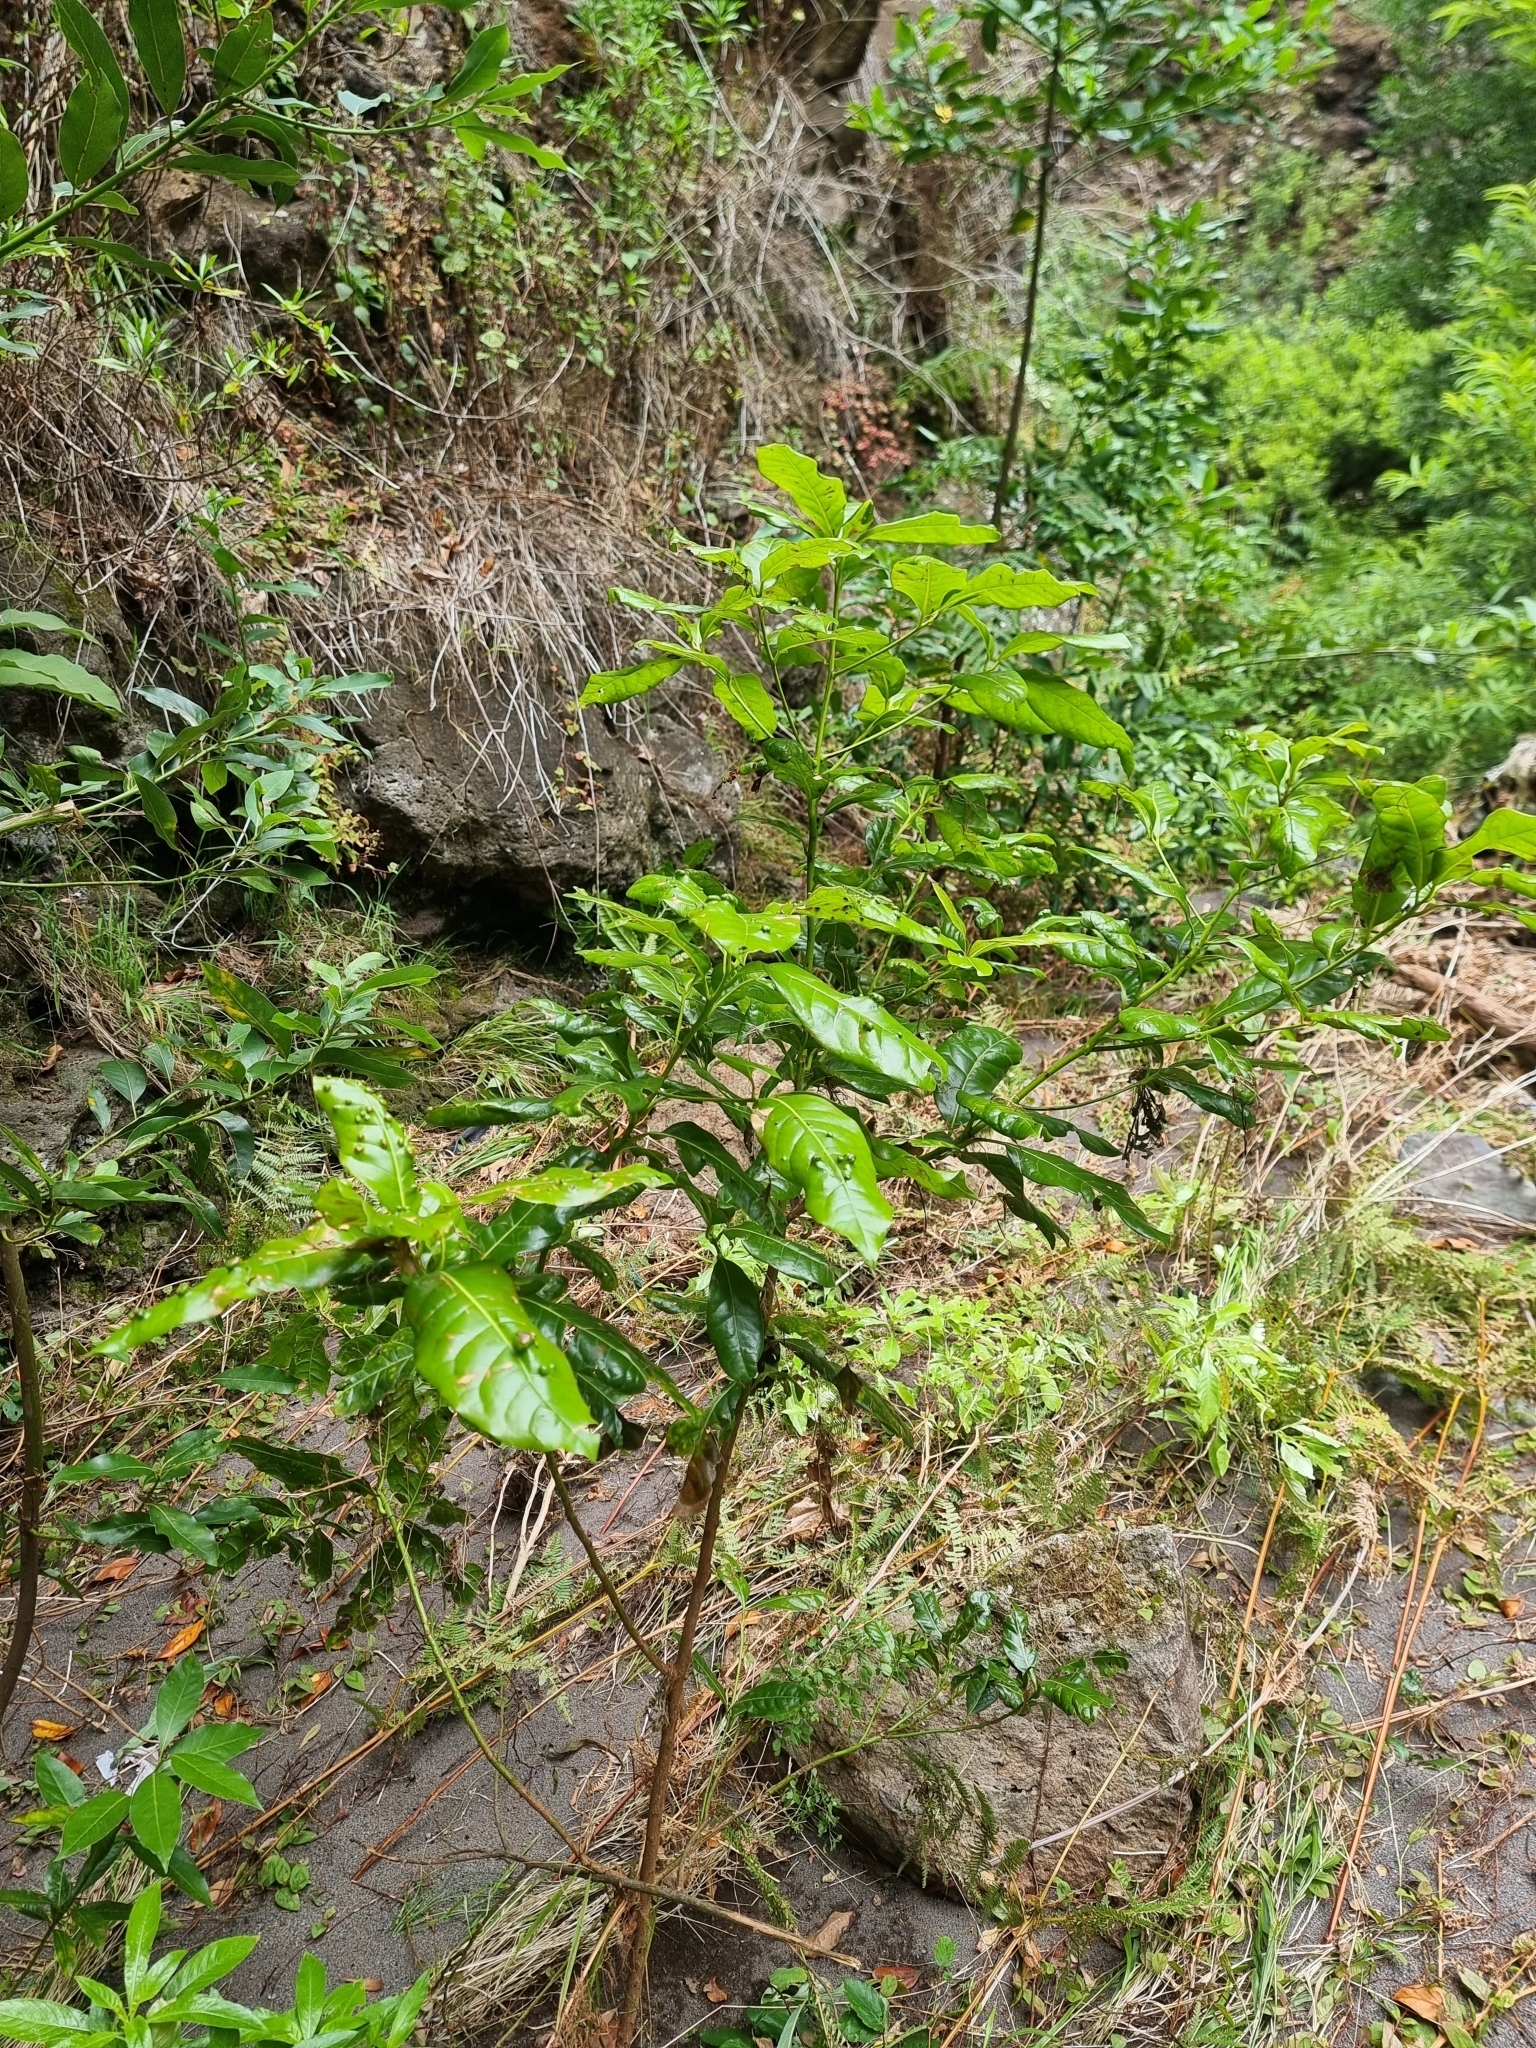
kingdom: Plantae
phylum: Tracheophyta
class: Magnoliopsida
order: Laurales
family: Lauraceae
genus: Apollonias
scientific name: Apollonias barbujana
